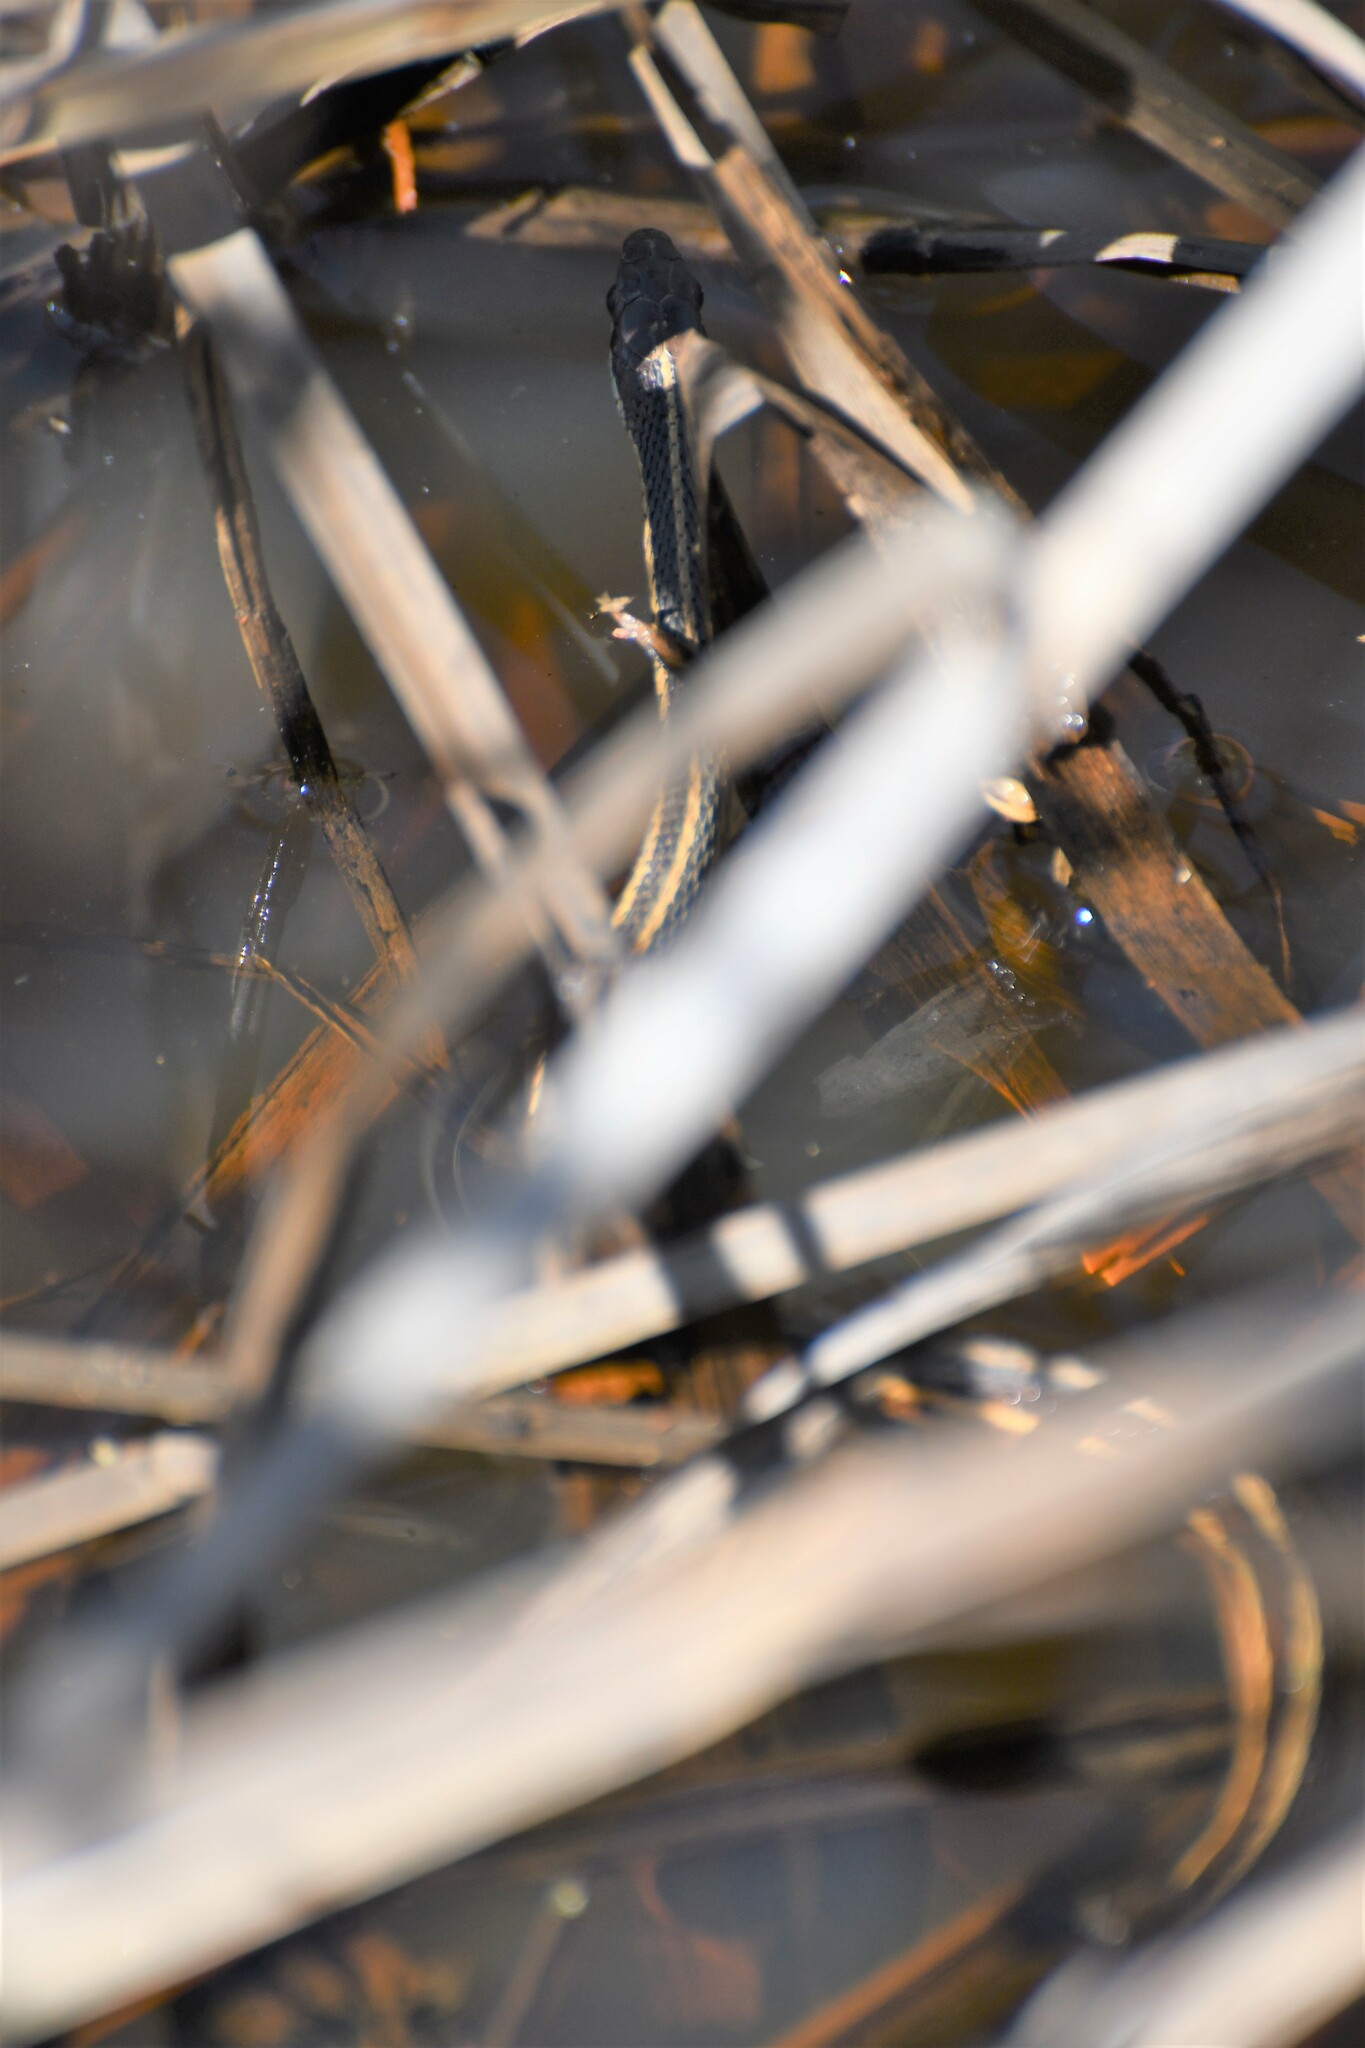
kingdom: Animalia
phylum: Chordata
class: Squamata
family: Colubridae
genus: Thamnophis
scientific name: Thamnophis saurita
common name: Eastern ribbonsnake
